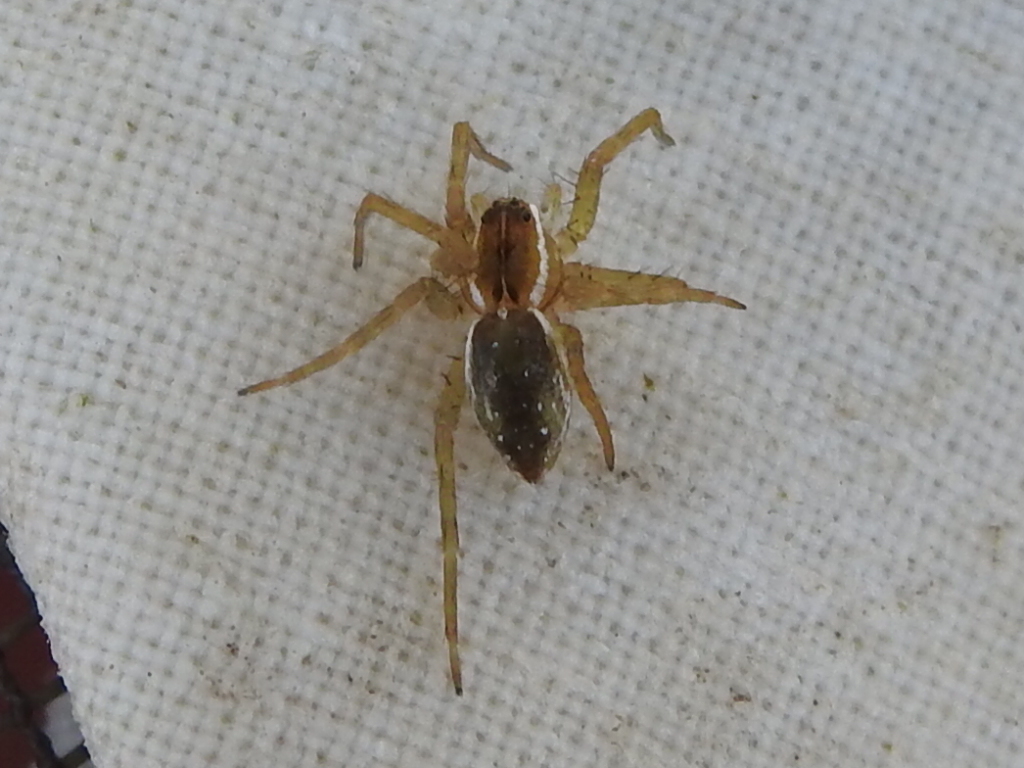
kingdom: Animalia
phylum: Arthropoda
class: Arachnida
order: Araneae
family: Pisauridae
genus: Dolomedes
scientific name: Dolomedes triton
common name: Six-spotted fishing spider
